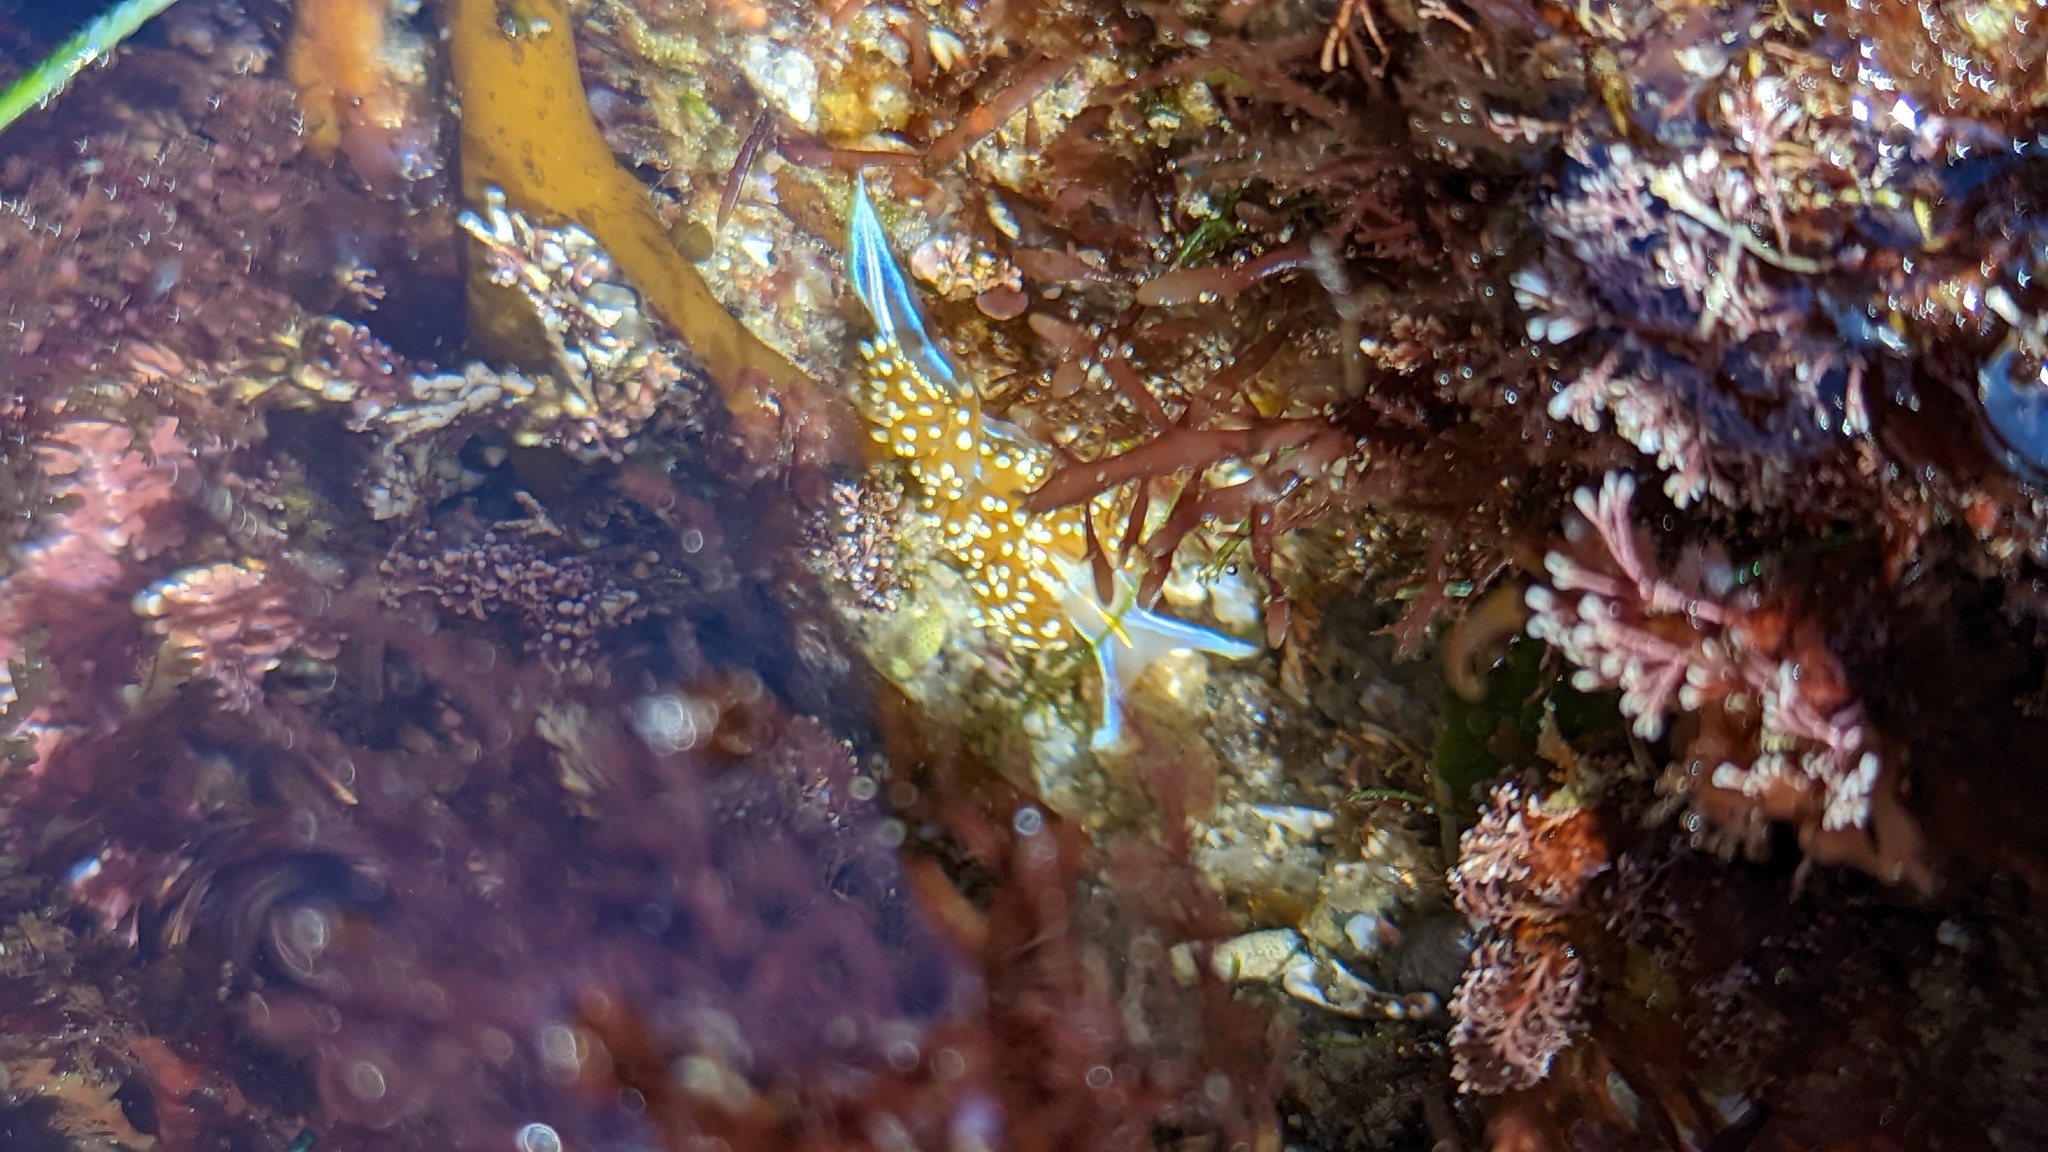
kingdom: Animalia
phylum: Mollusca
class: Gastropoda
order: Nudibranchia
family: Myrrhinidae
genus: Hermissenda
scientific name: Hermissenda opalescens
